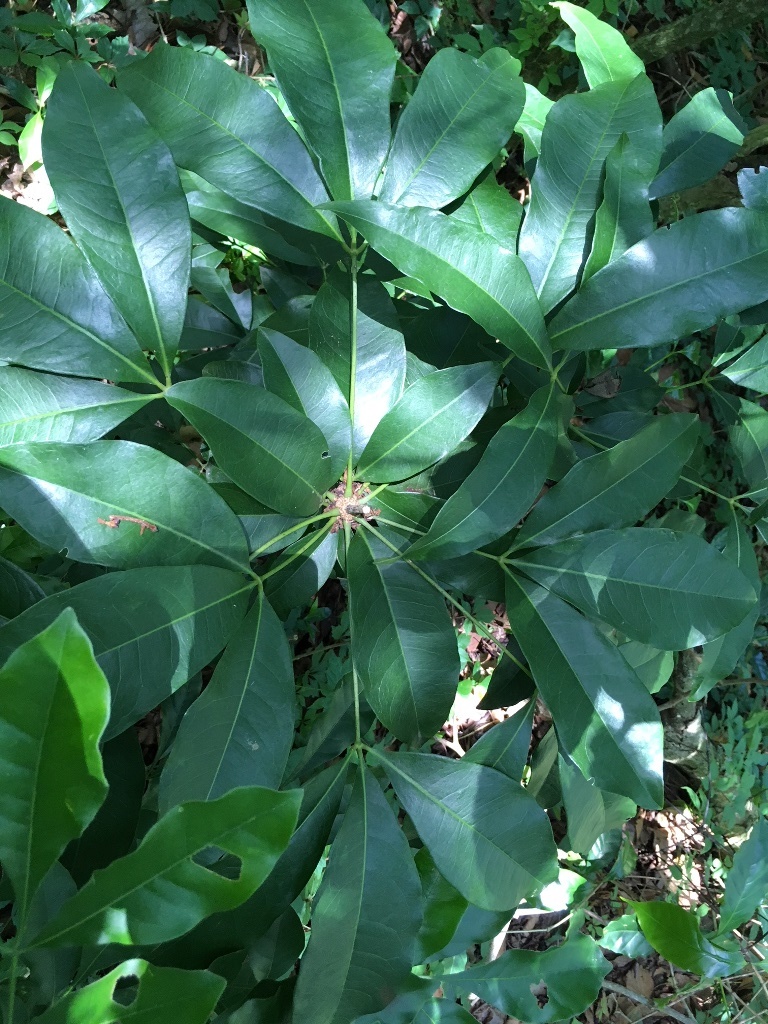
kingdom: Plantae
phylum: Tracheophyta
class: Magnoliopsida
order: Brassicales
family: Stixaceae
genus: Forchhammeria
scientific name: Forchhammeria trifoliata
